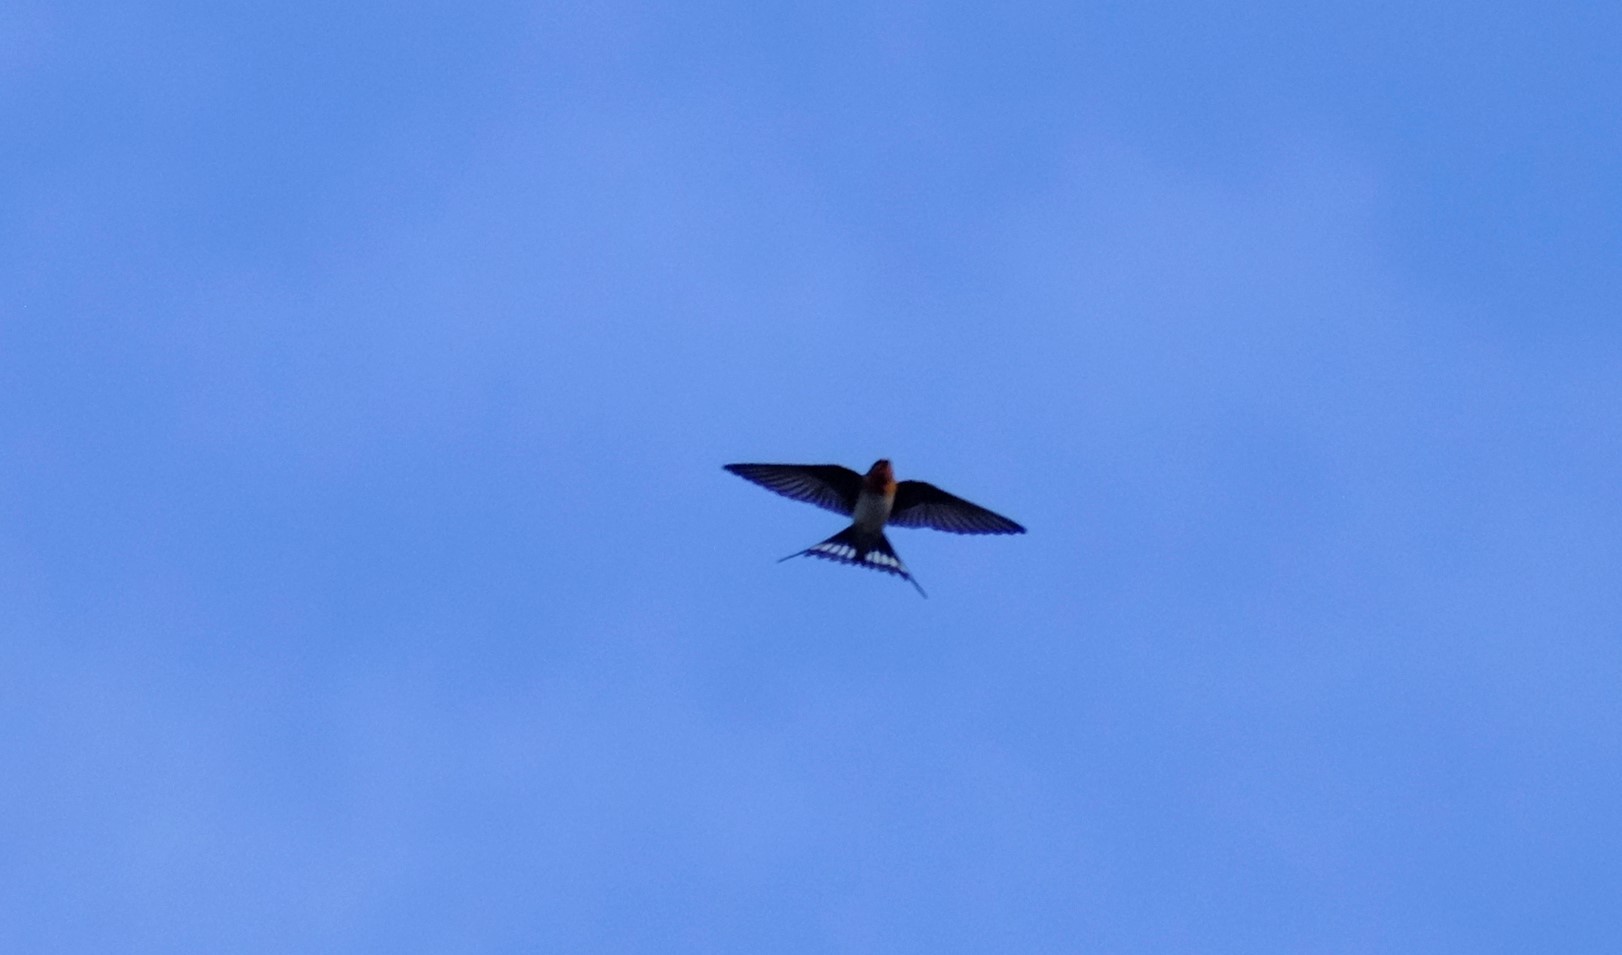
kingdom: Animalia
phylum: Chordata
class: Aves
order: Passeriformes
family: Hirundinidae
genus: Hirundo
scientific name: Hirundo neoxena
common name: Welcome swallow
